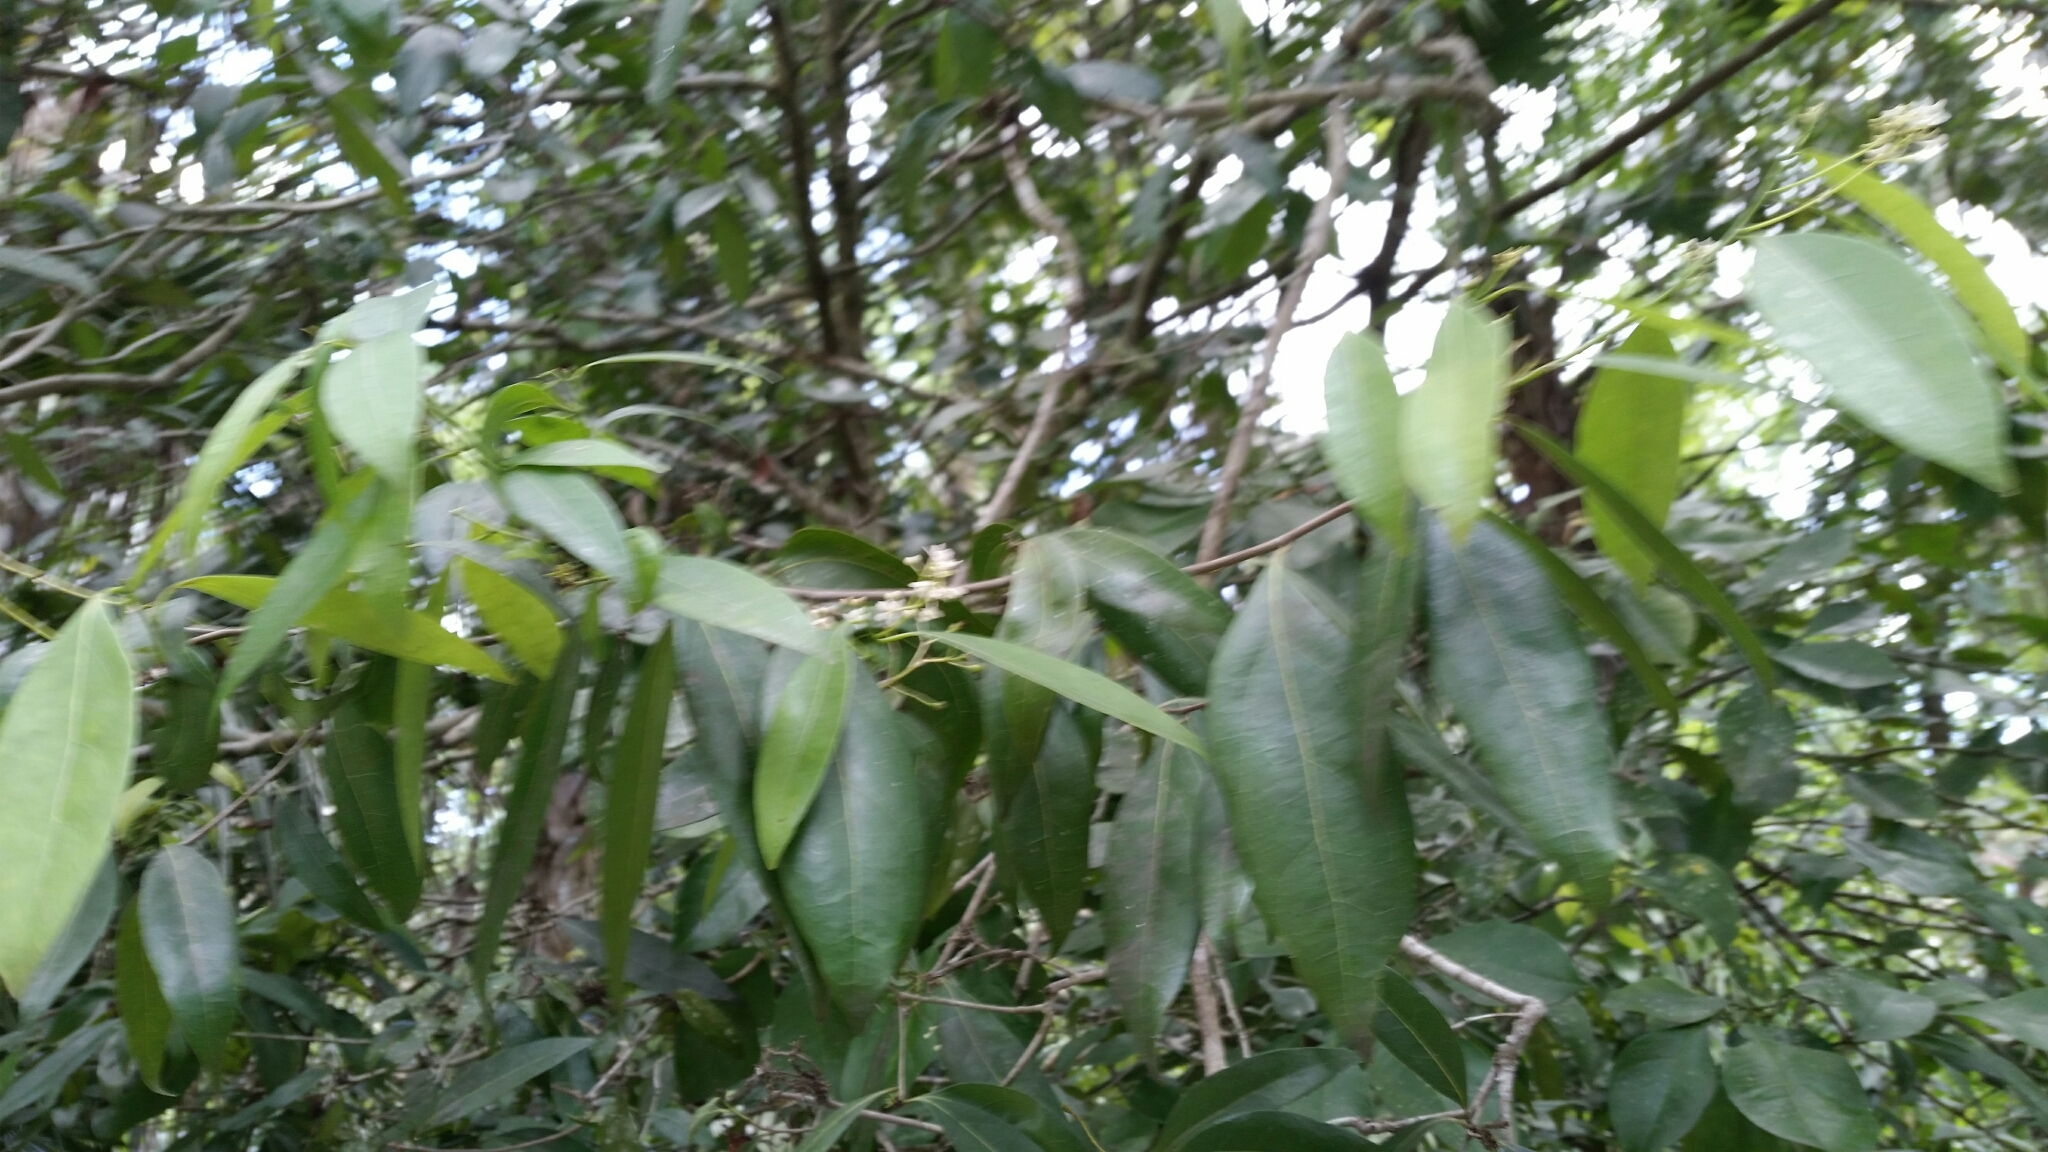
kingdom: Plantae
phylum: Tracheophyta
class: Magnoliopsida
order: Laurales
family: Lauraceae
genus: Damburneya
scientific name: Damburneya
